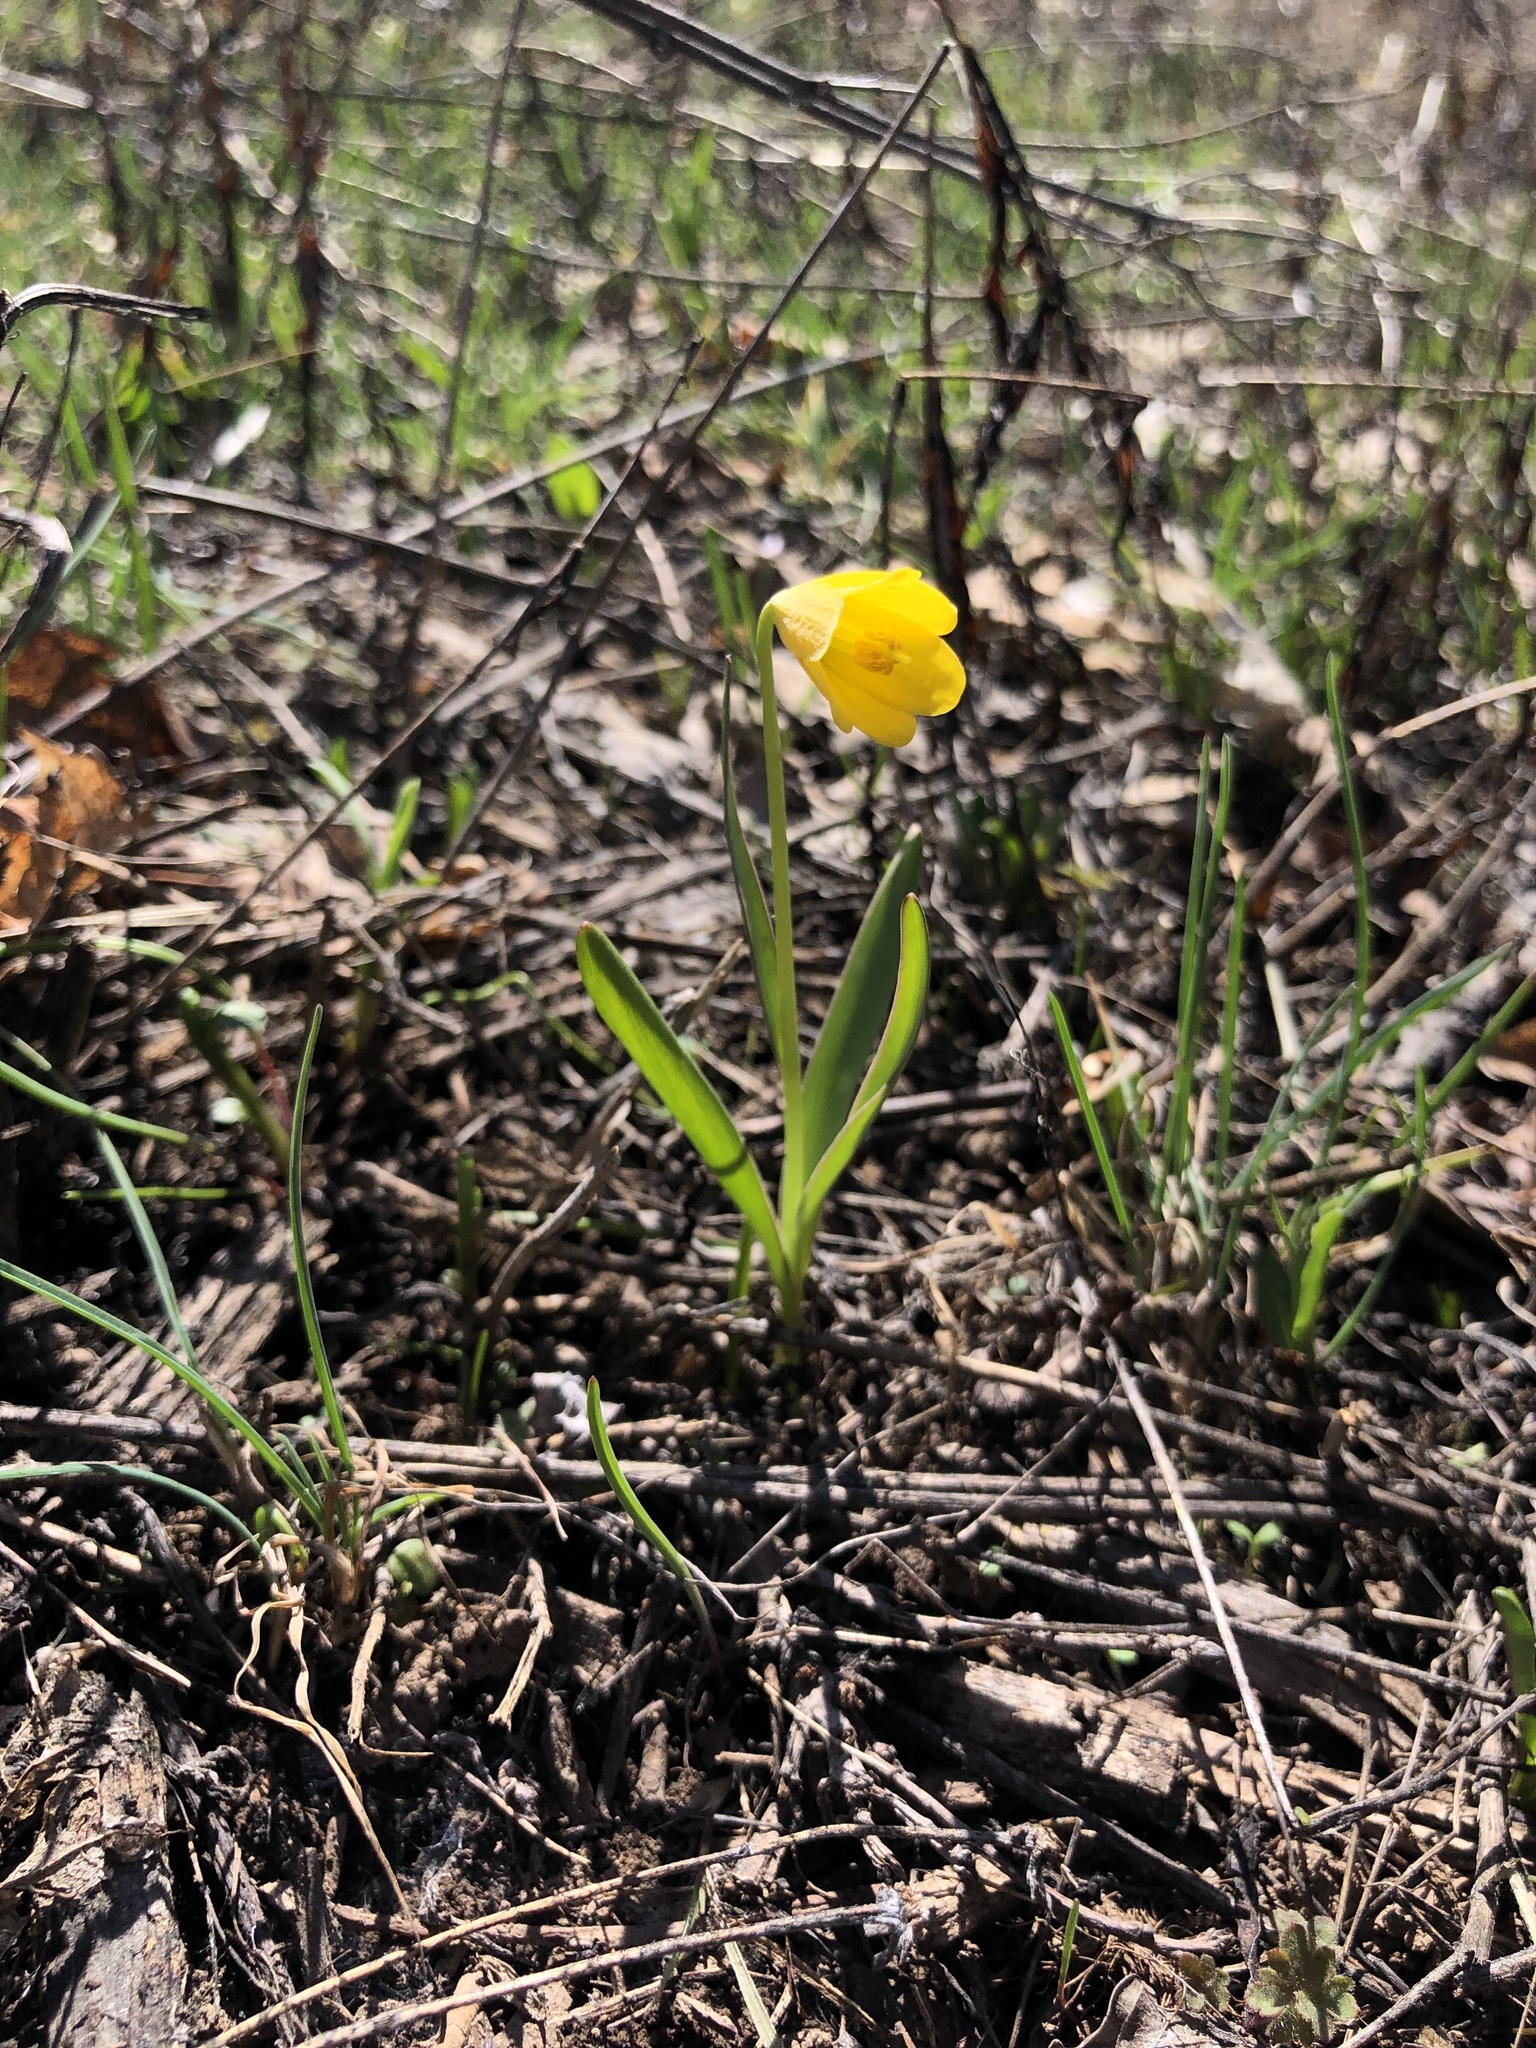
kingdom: Plantae
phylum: Tracheophyta
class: Liliopsida
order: Liliales
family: Liliaceae
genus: Fritillaria
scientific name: Fritillaria pudica
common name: Yellow fritillary
